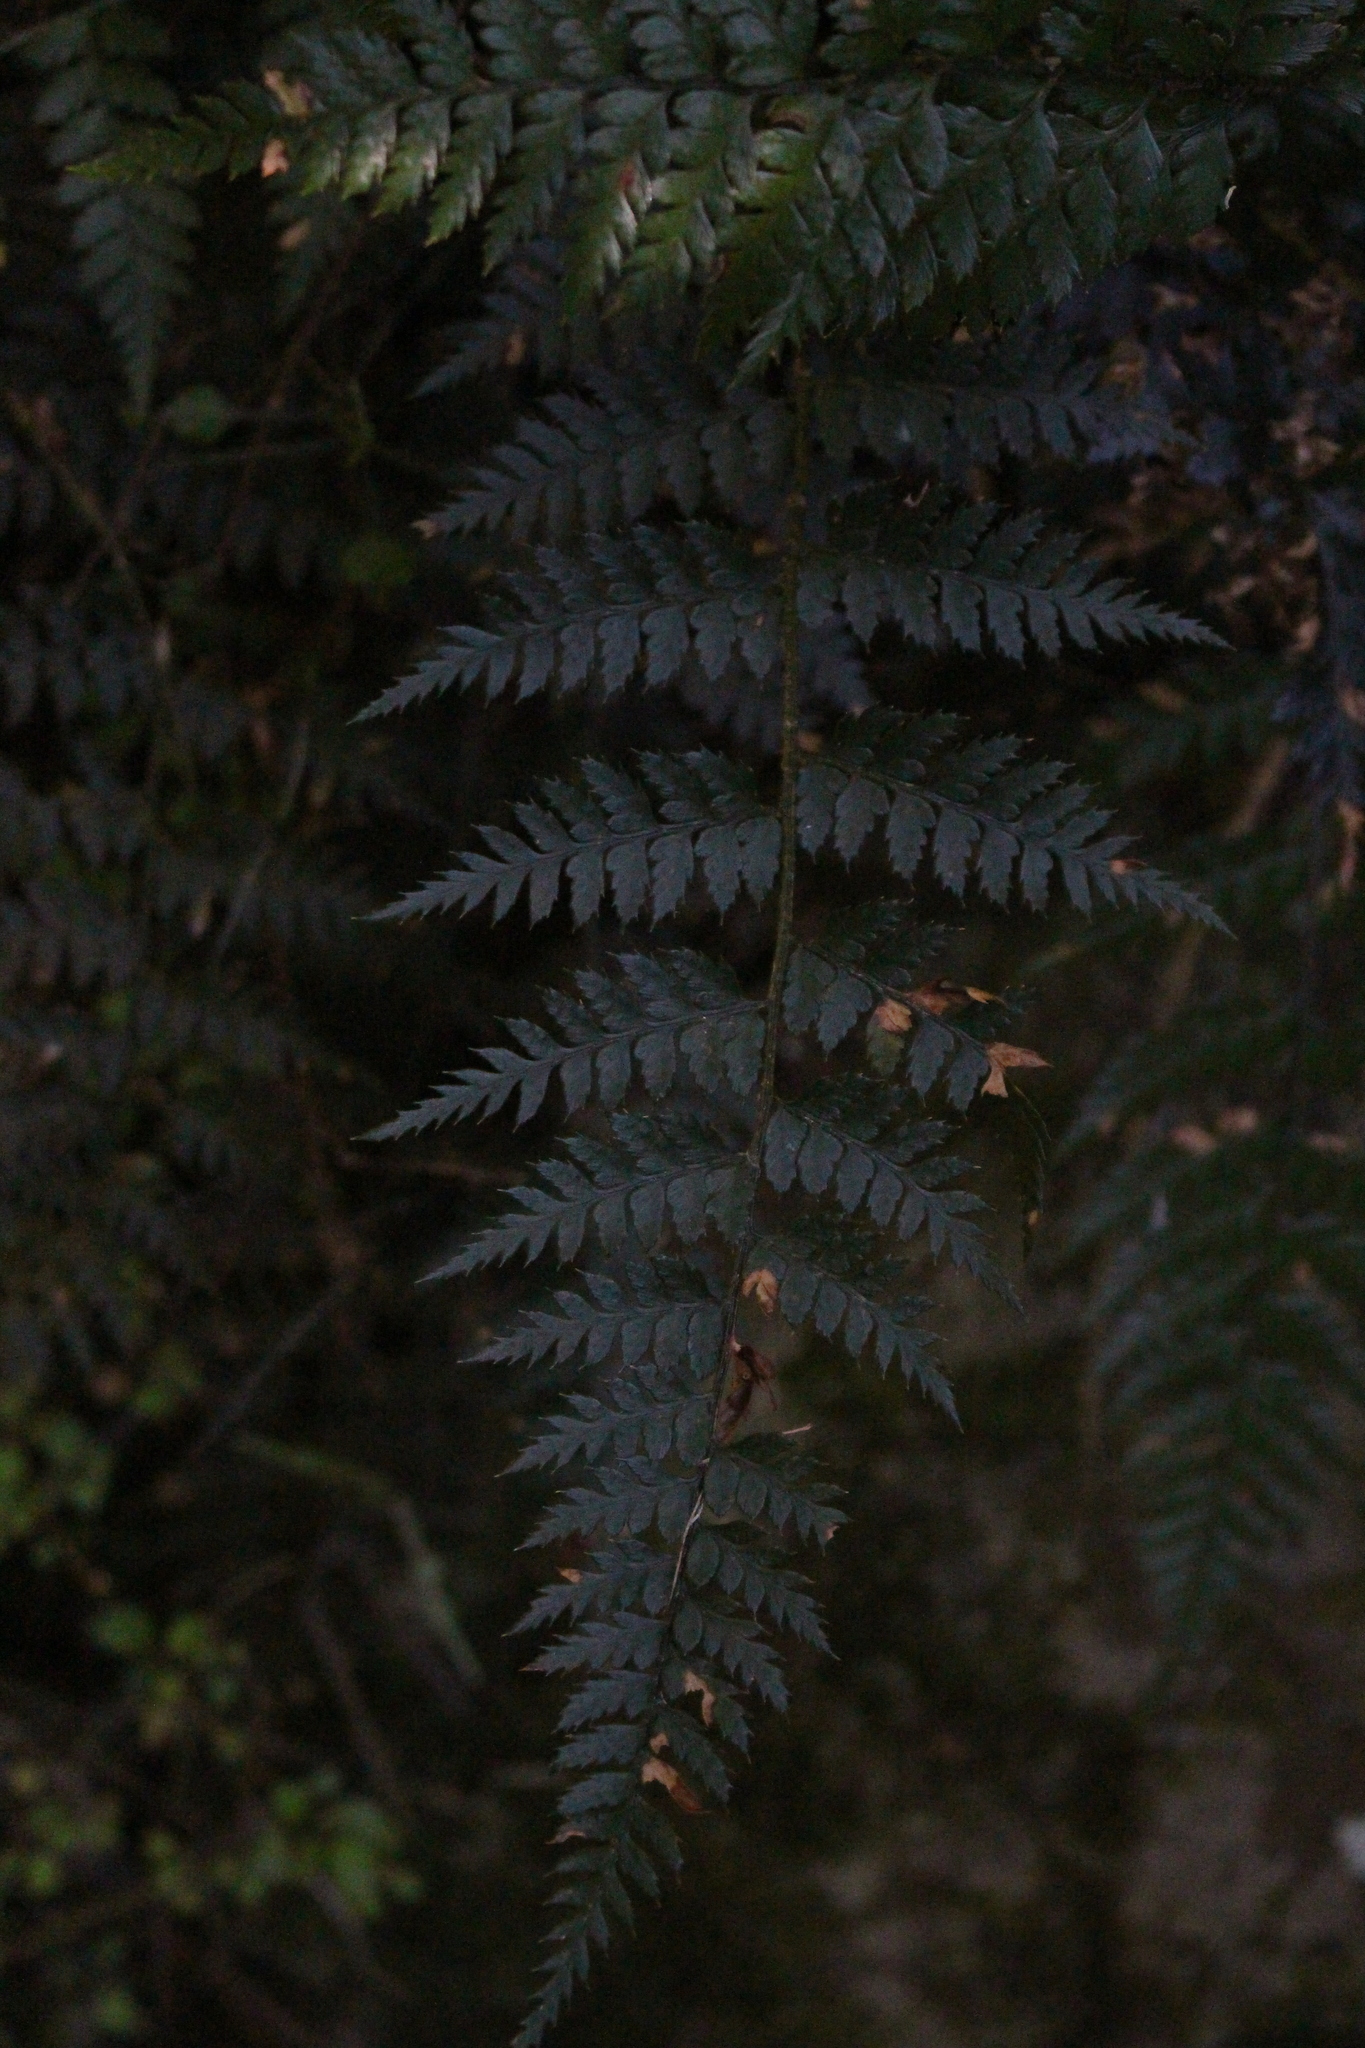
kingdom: Plantae
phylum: Tracheophyta
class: Polypodiopsida
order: Polypodiales
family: Dryopteridaceae
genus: Polystichum
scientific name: Polystichum oculatum
